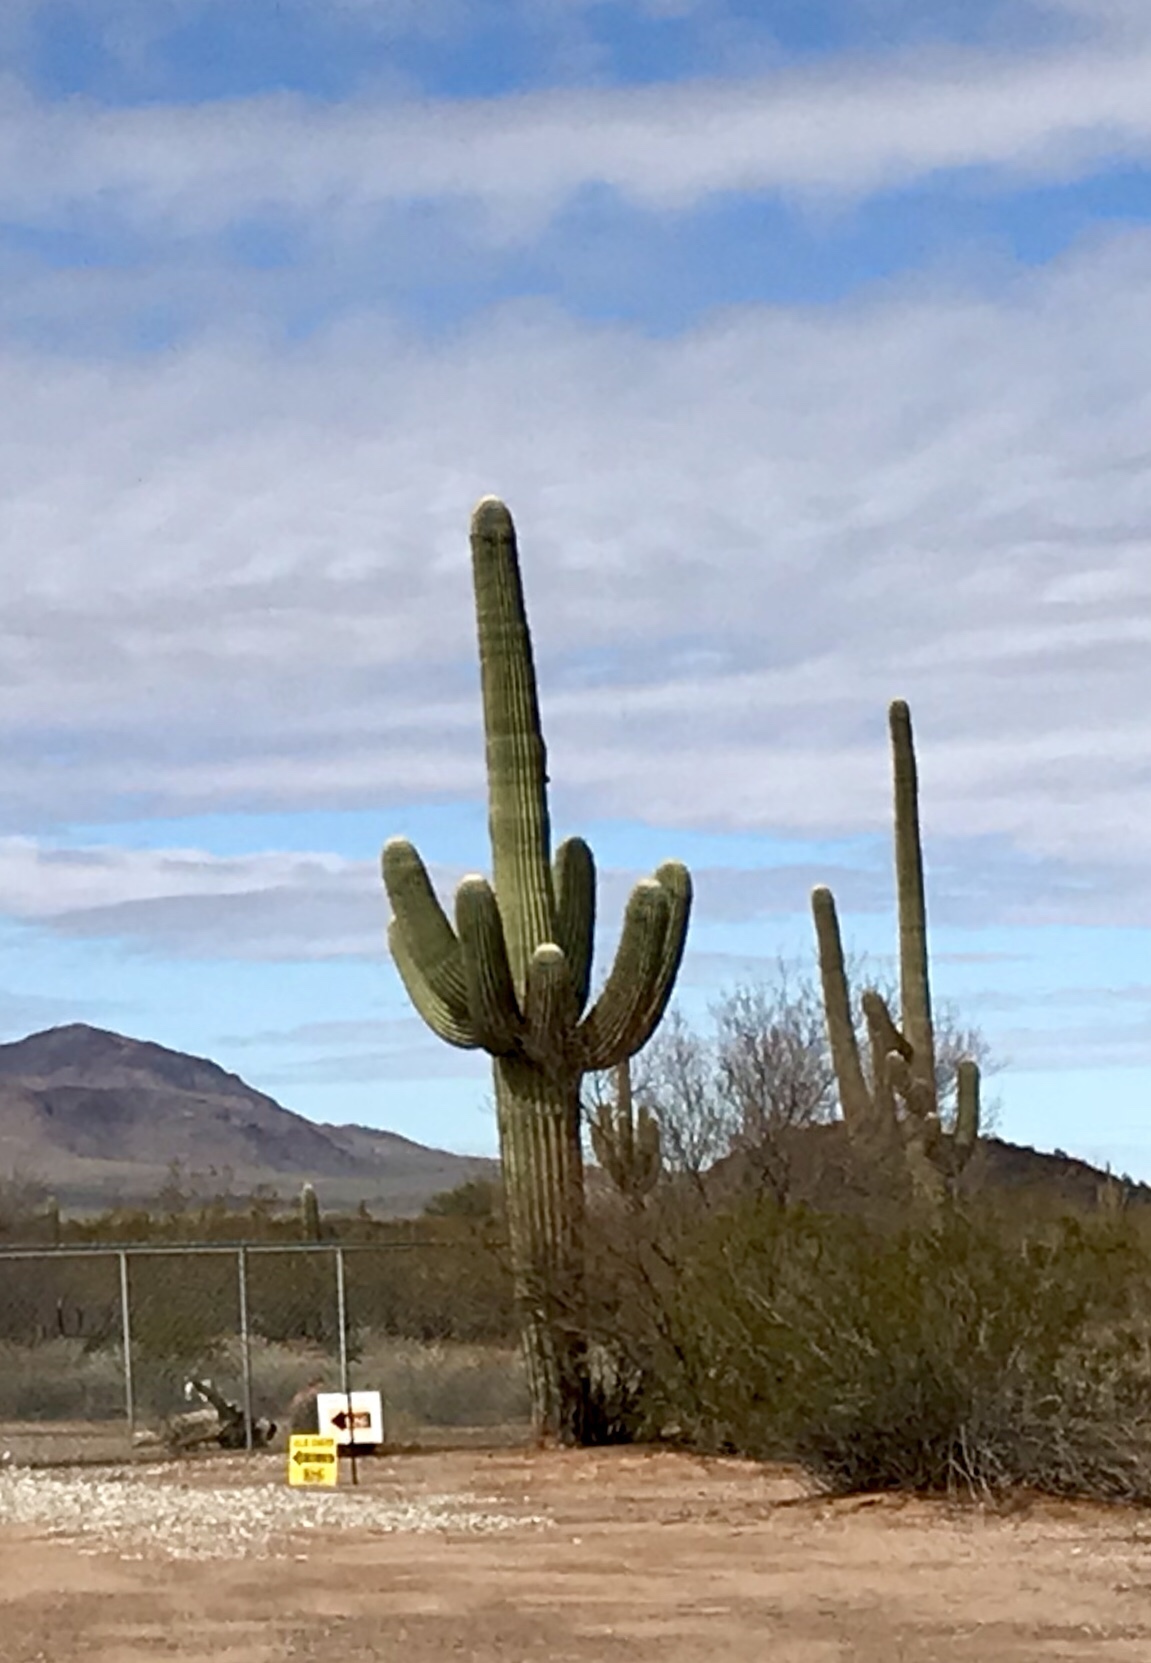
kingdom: Plantae
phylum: Tracheophyta
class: Magnoliopsida
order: Caryophyllales
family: Cactaceae
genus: Carnegiea
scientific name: Carnegiea gigantea
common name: Saguaro
